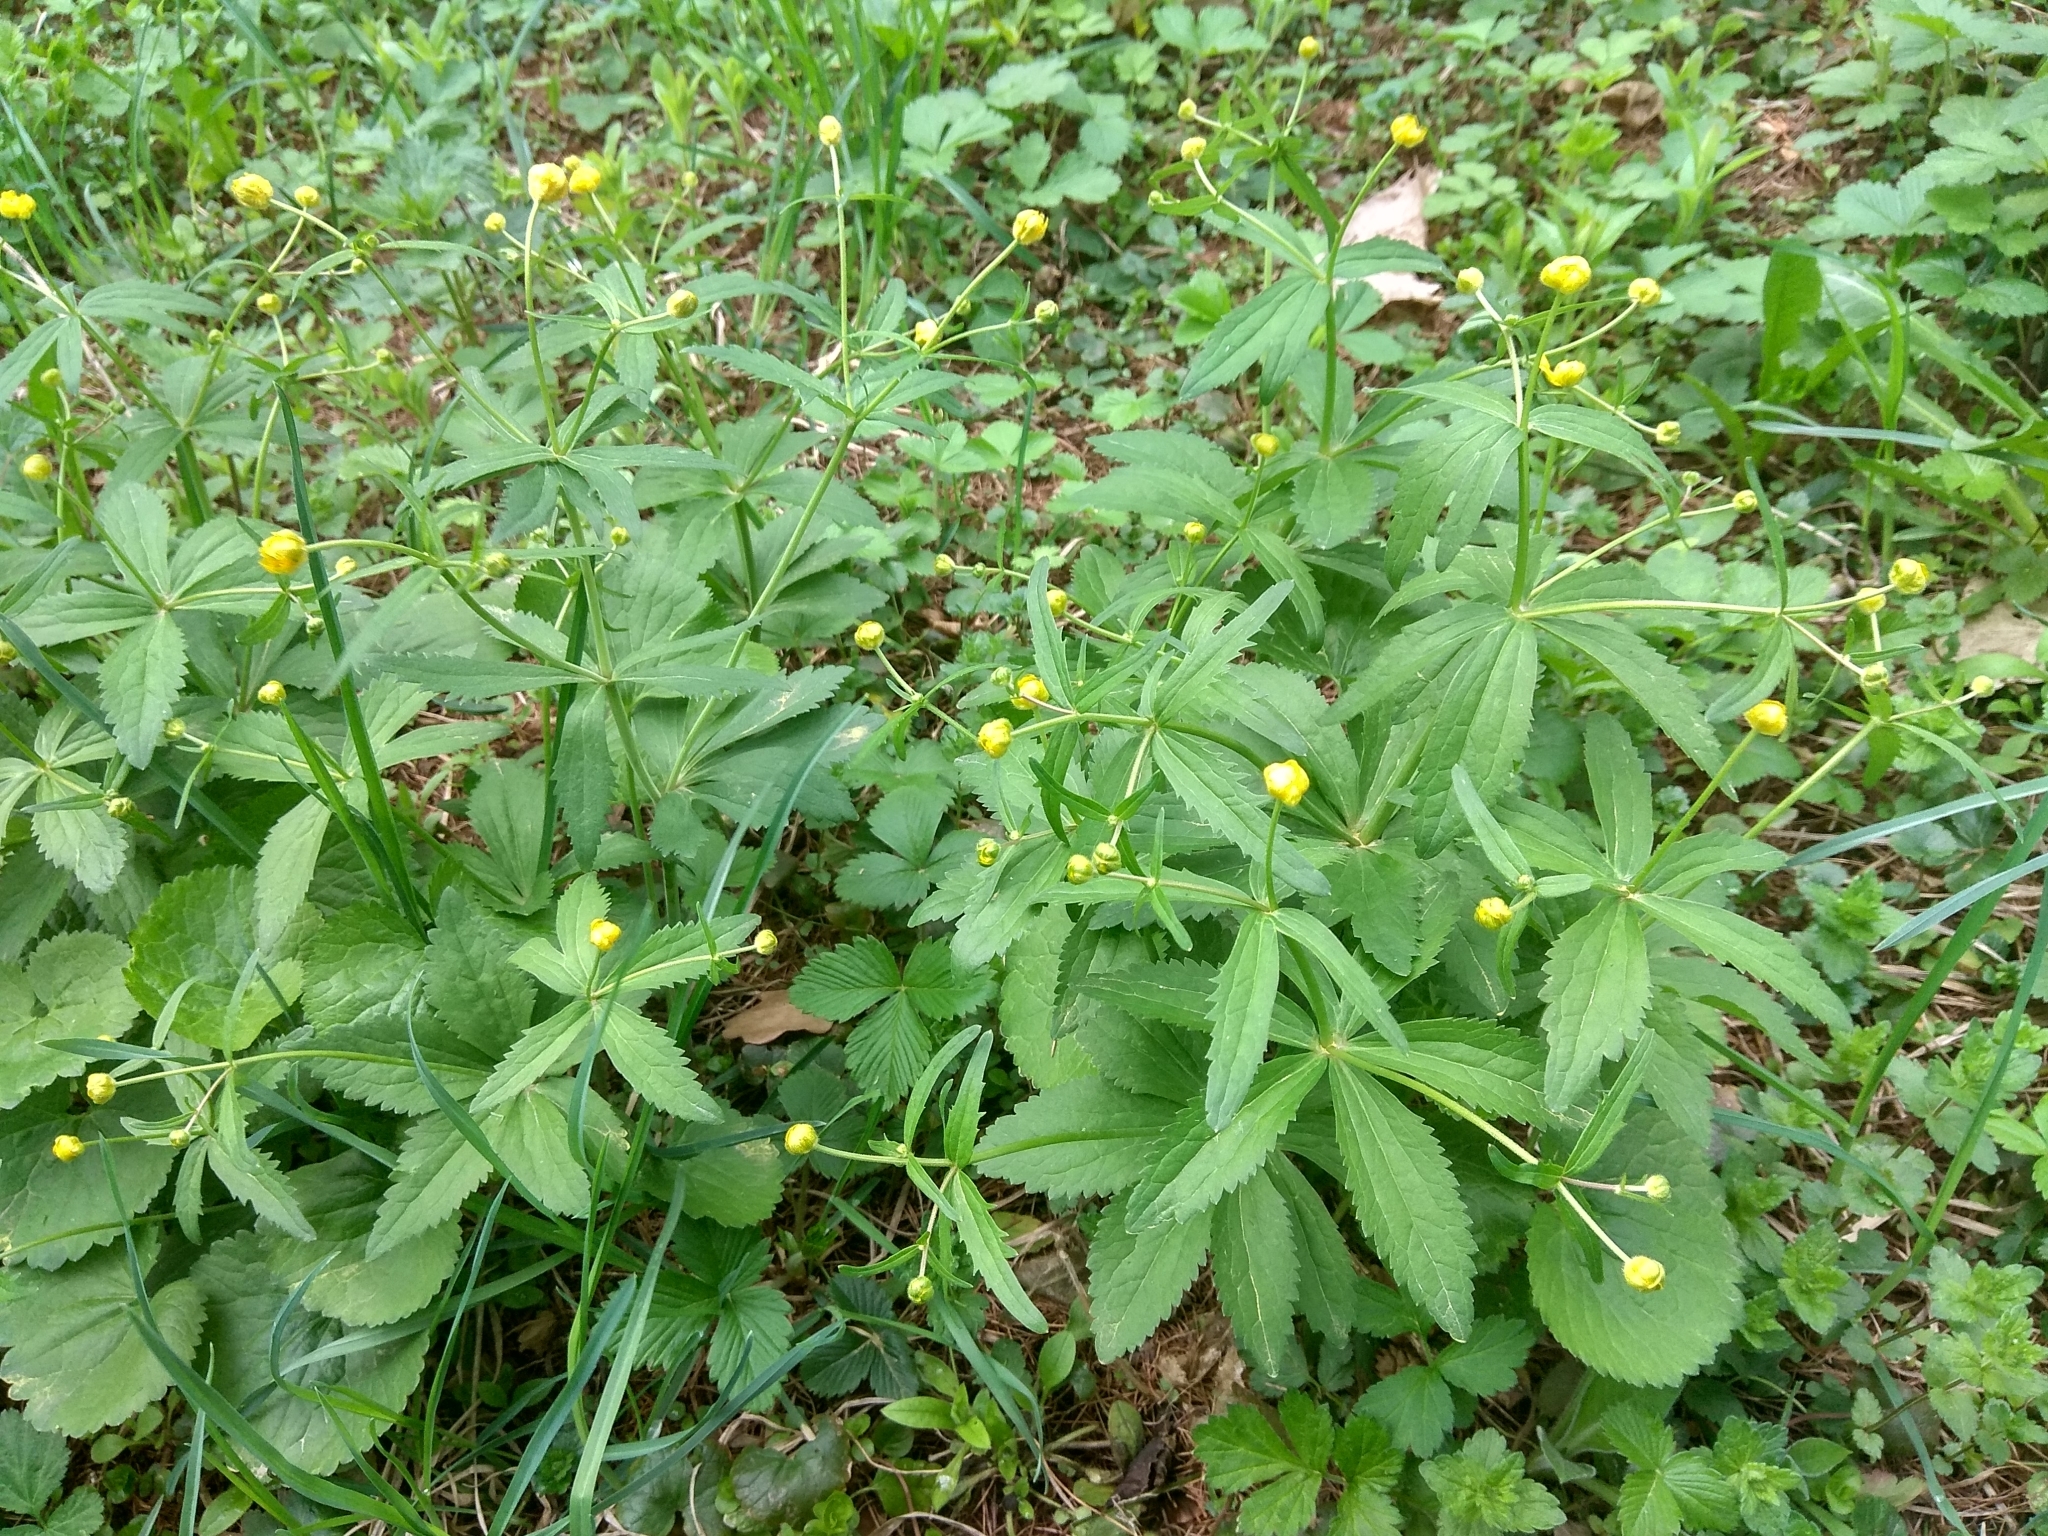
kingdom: Plantae
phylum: Tracheophyta
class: Magnoliopsida
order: Ranunculales
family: Ranunculaceae
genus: Ranunculus
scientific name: Ranunculus cassubicus
